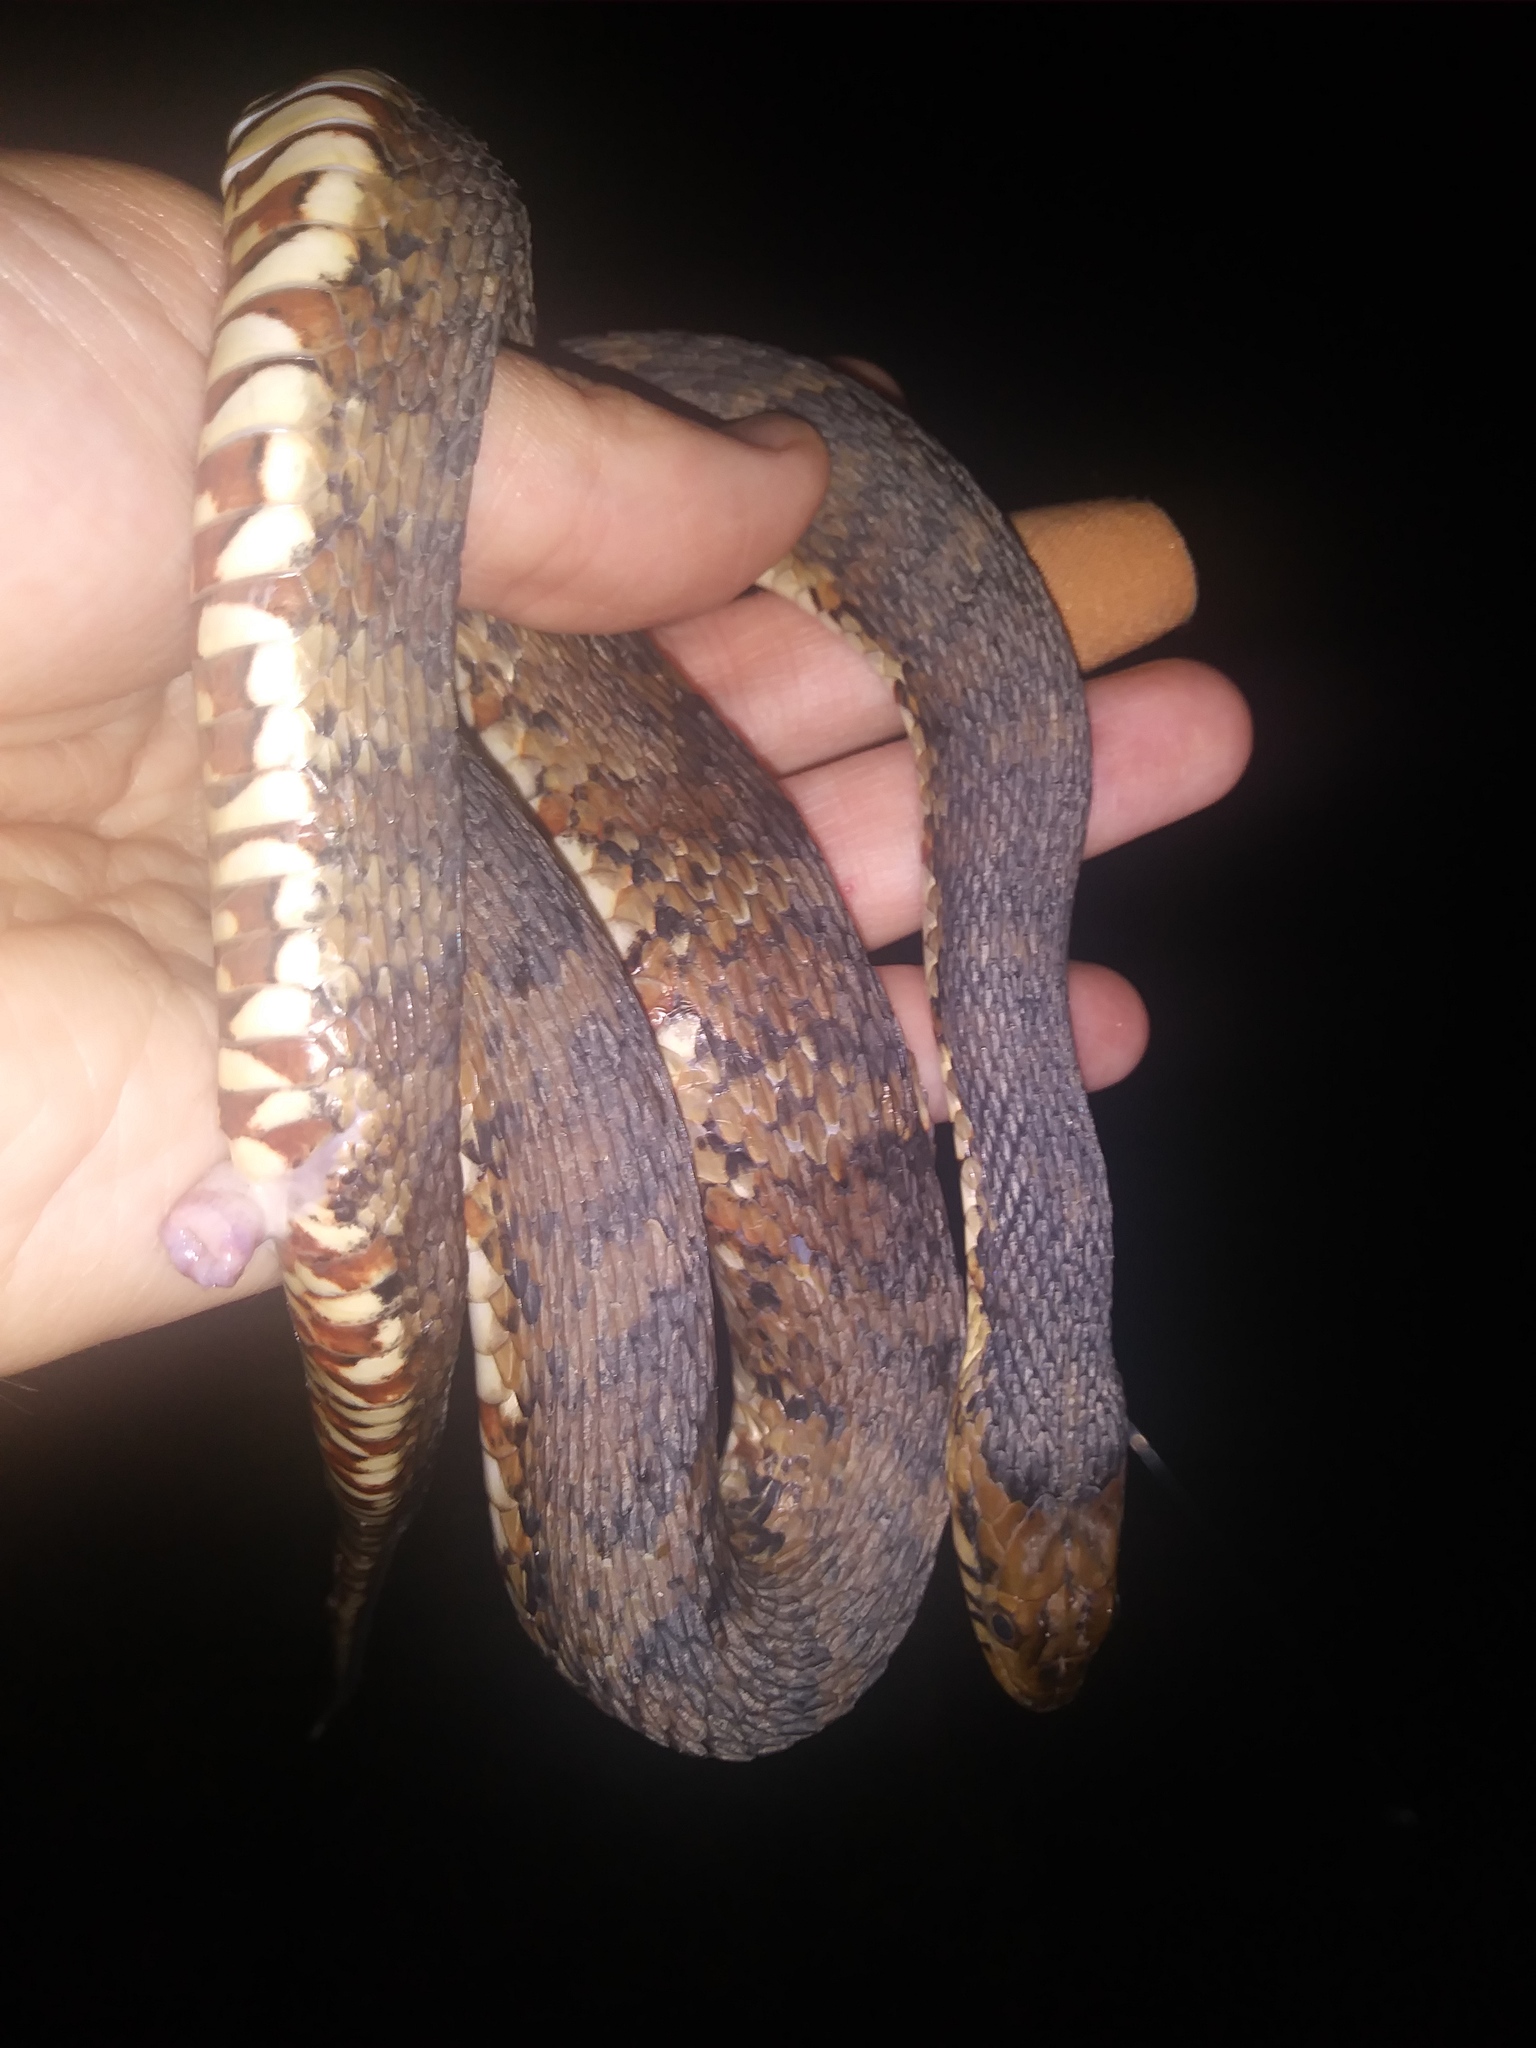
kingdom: Animalia
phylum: Chordata
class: Squamata
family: Colubridae
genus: Nerodia
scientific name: Nerodia fasciata
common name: Southern water snake
